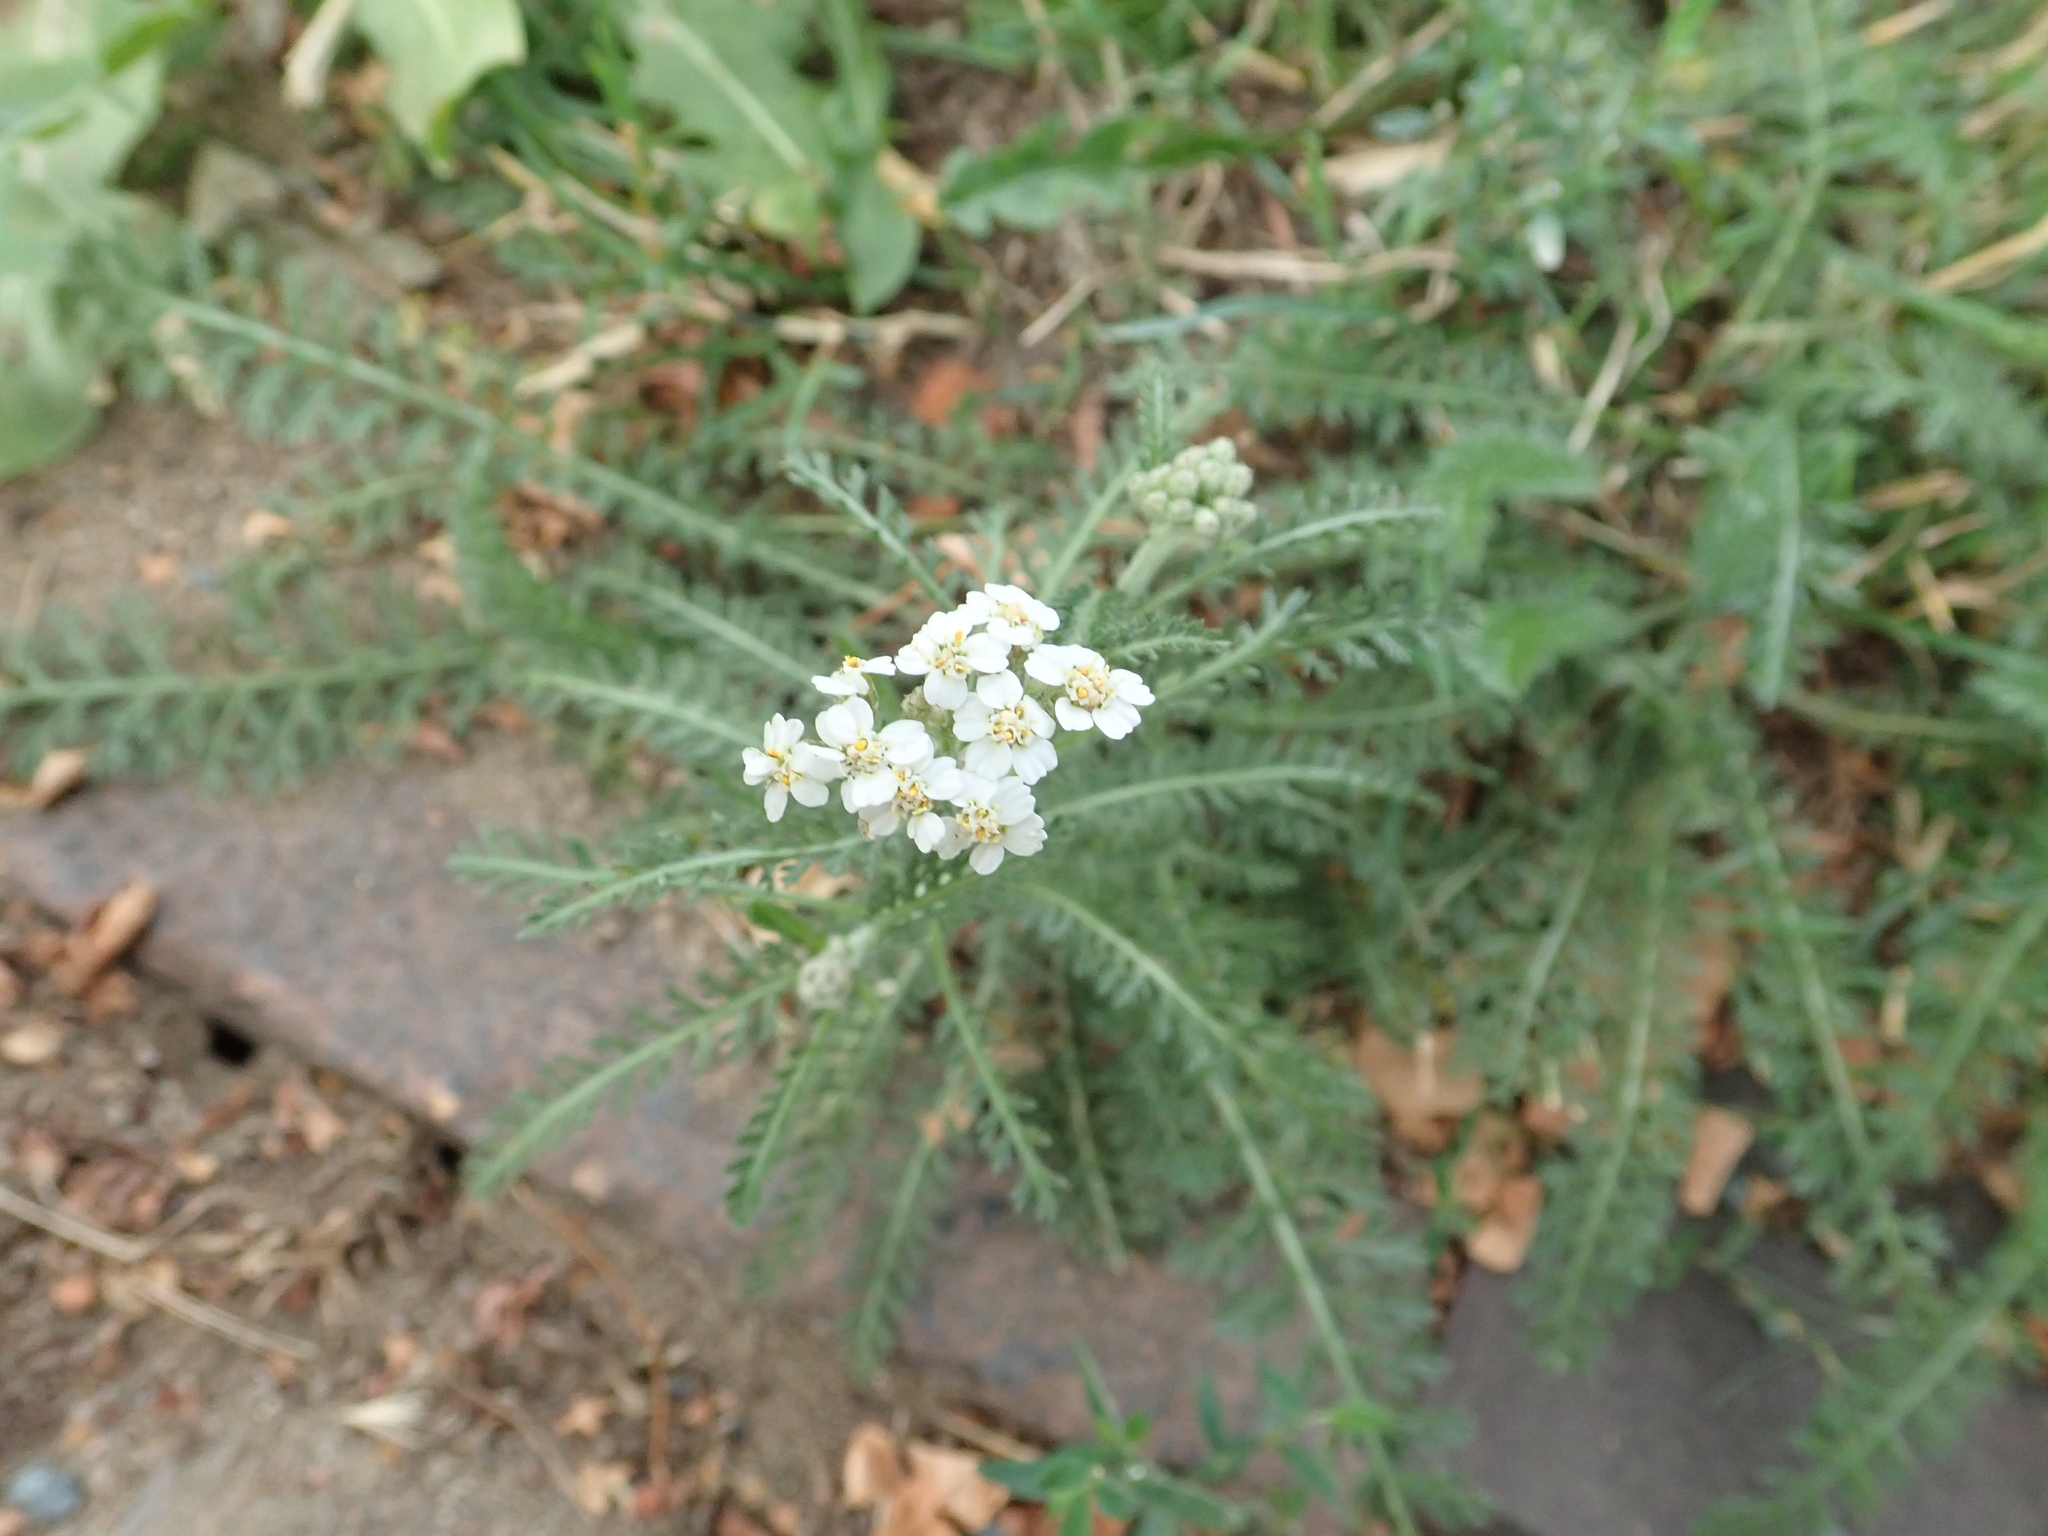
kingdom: Plantae
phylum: Tracheophyta
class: Magnoliopsida
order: Asterales
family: Asteraceae
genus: Achillea
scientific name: Achillea millefolium
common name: Yarrow
